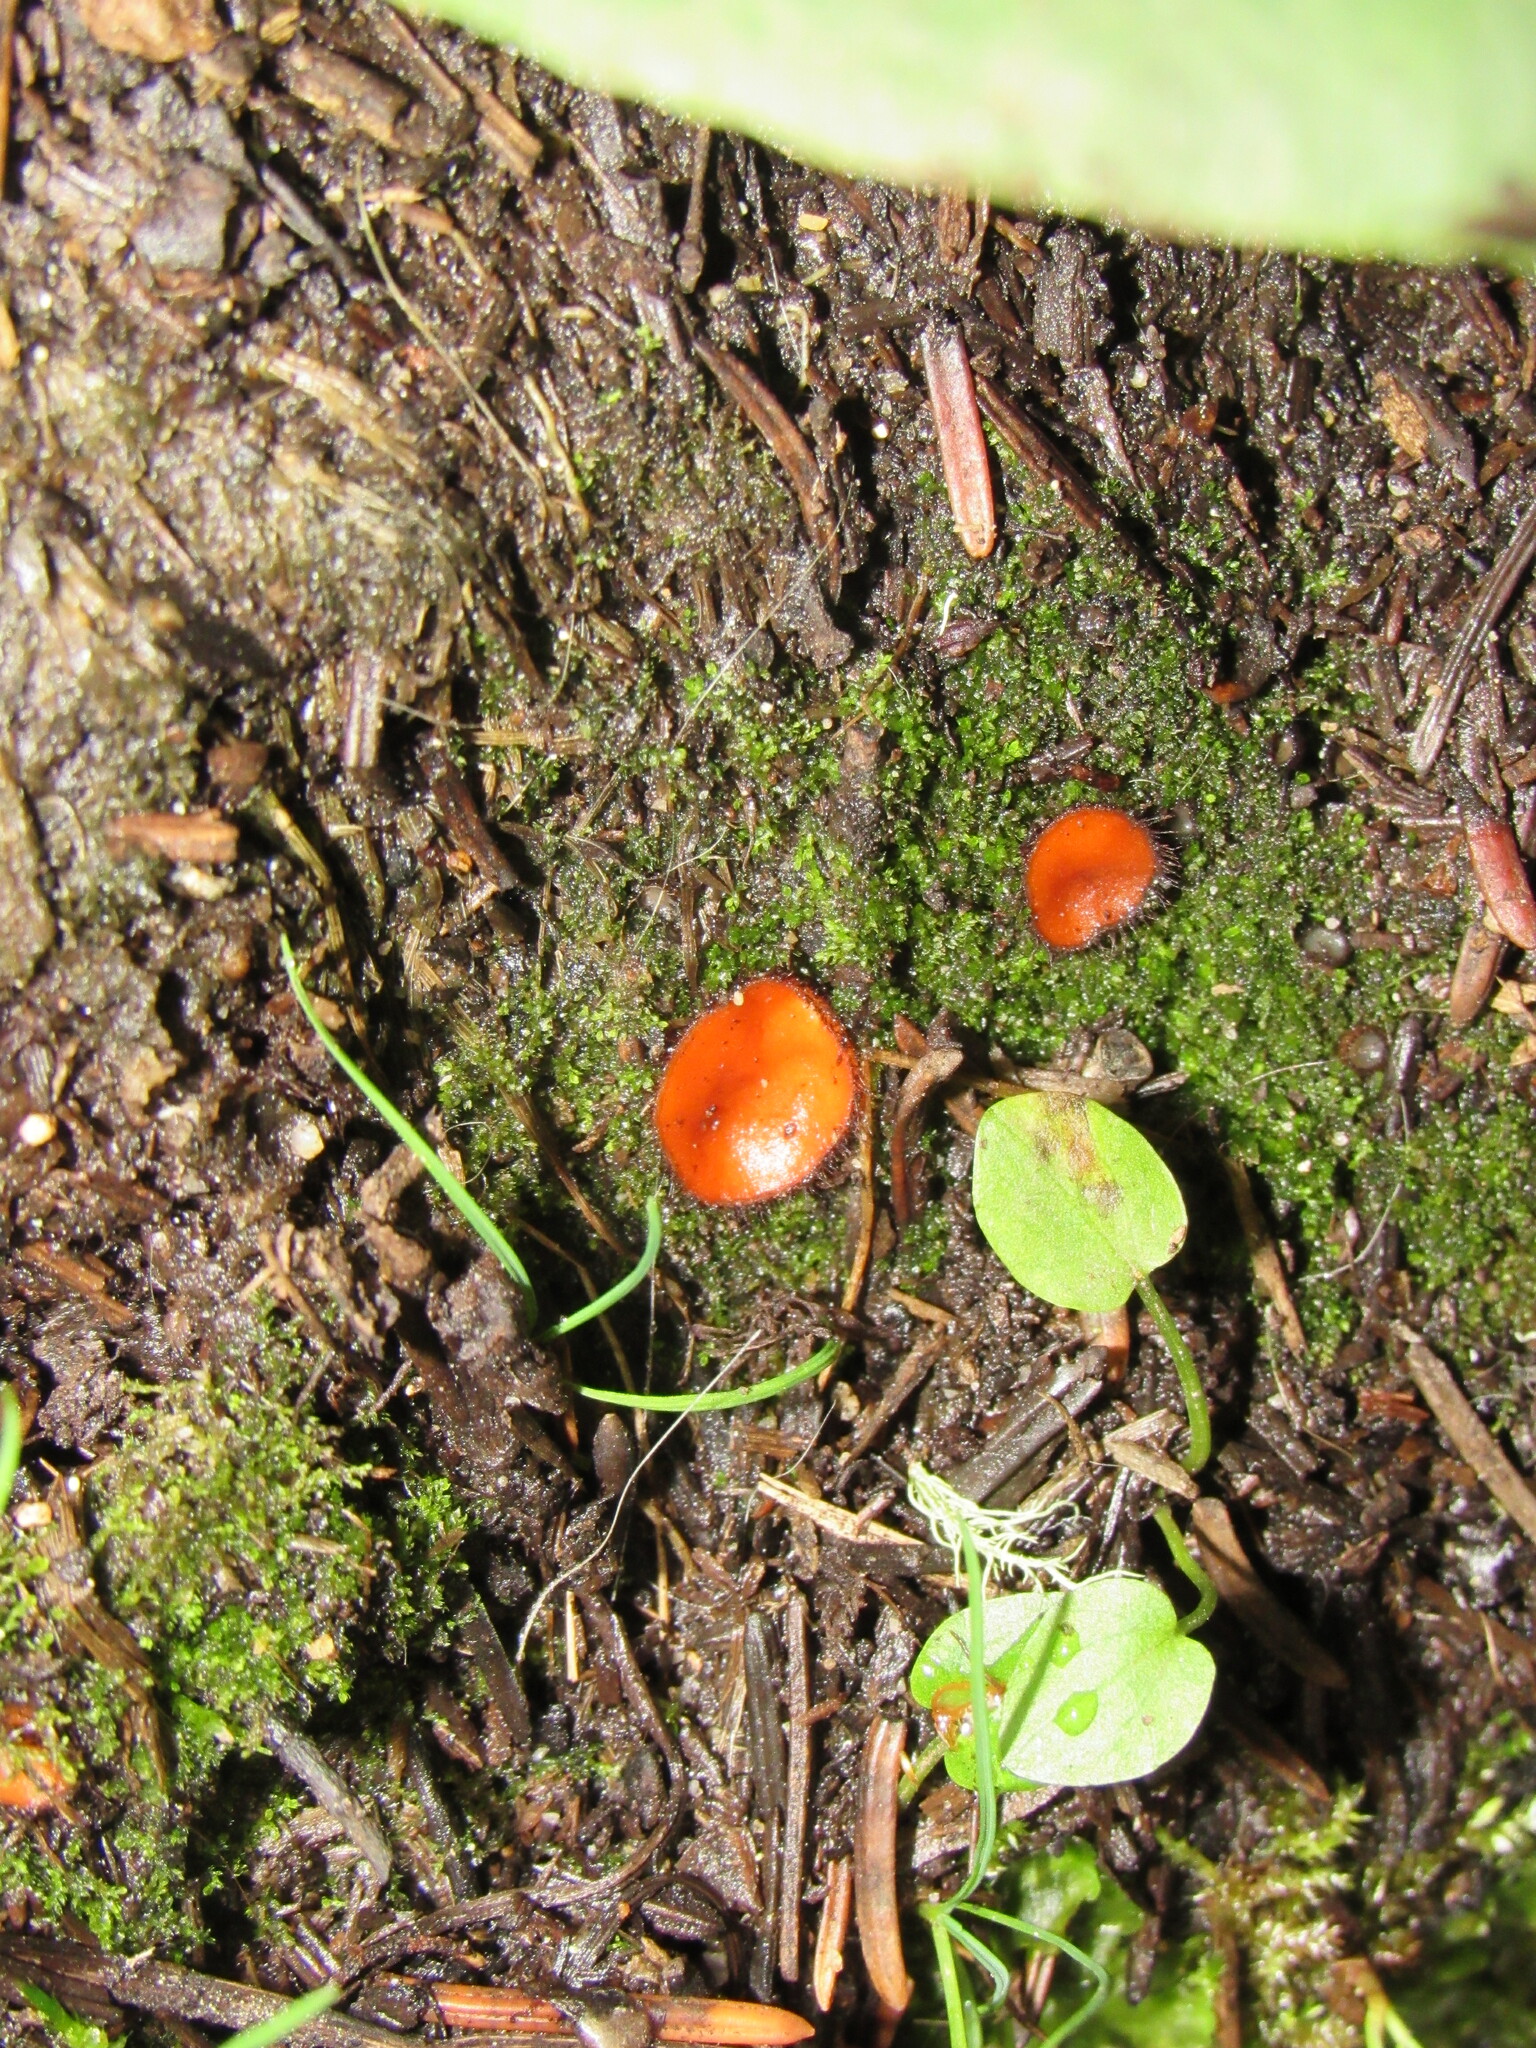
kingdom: Fungi
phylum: Ascomycota
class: Pezizomycetes
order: Pezizales
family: Pyronemataceae
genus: Scutellinia
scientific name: Scutellinia scutellata
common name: Common eyelash
